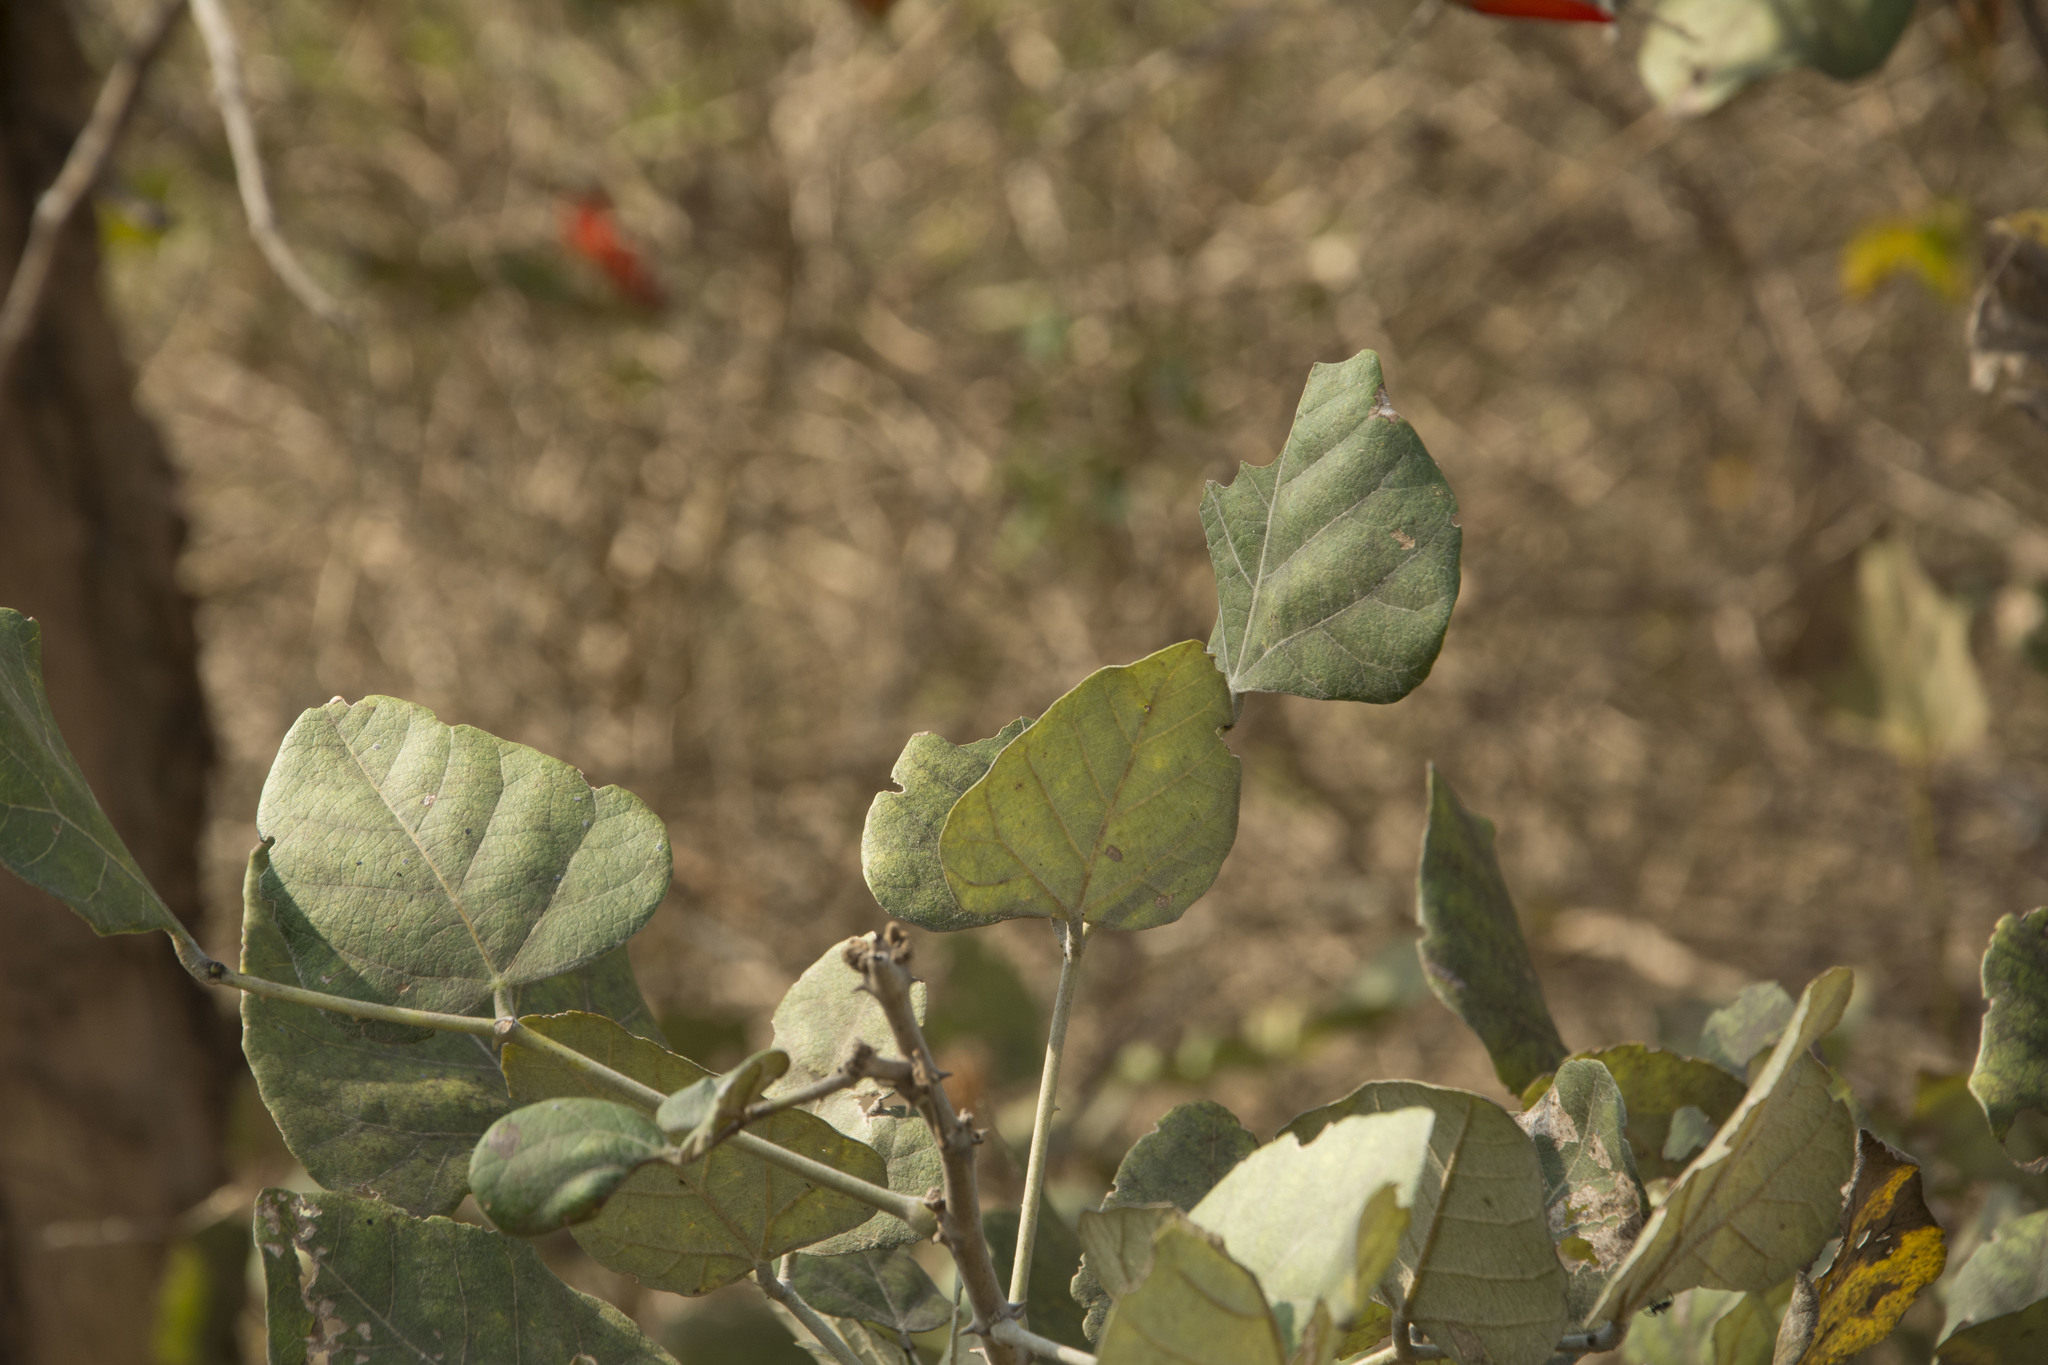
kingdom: Plantae
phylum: Tracheophyta
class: Magnoliopsida
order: Fabales
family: Fabaceae
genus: Erythrina
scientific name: Erythrina suberosa
